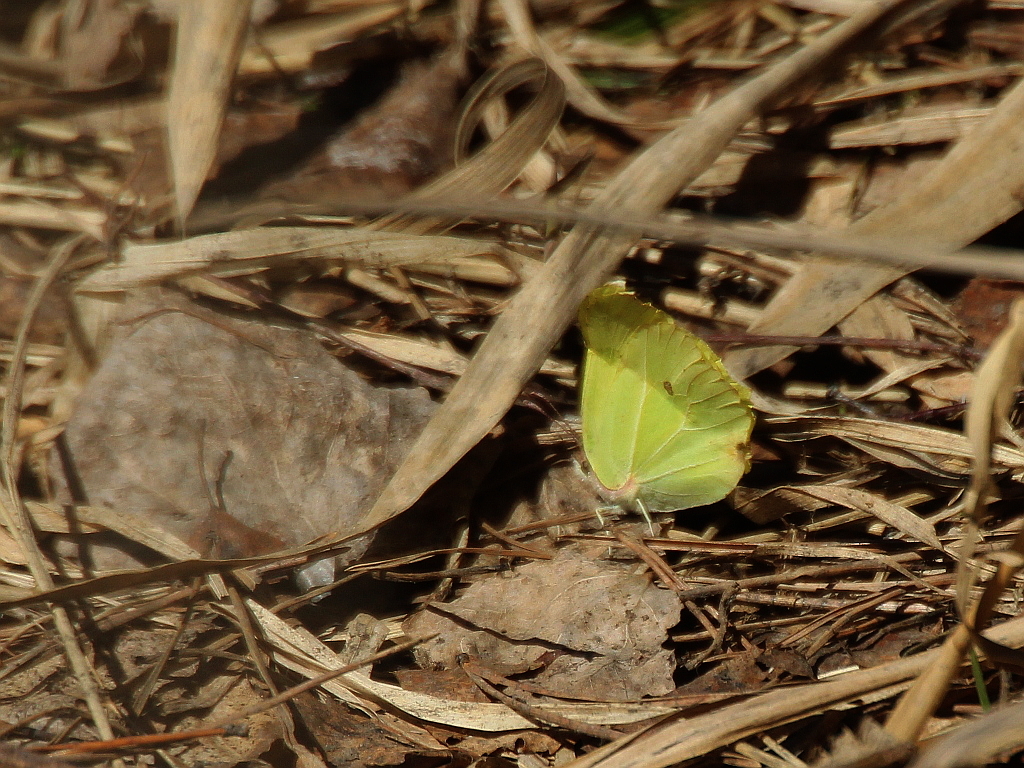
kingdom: Animalia
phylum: Arthropoda
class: Insecta
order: Lepidoptera
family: Pieridae
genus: Gonepteryx
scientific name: Gonepteryx rhamni
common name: Brimstone
